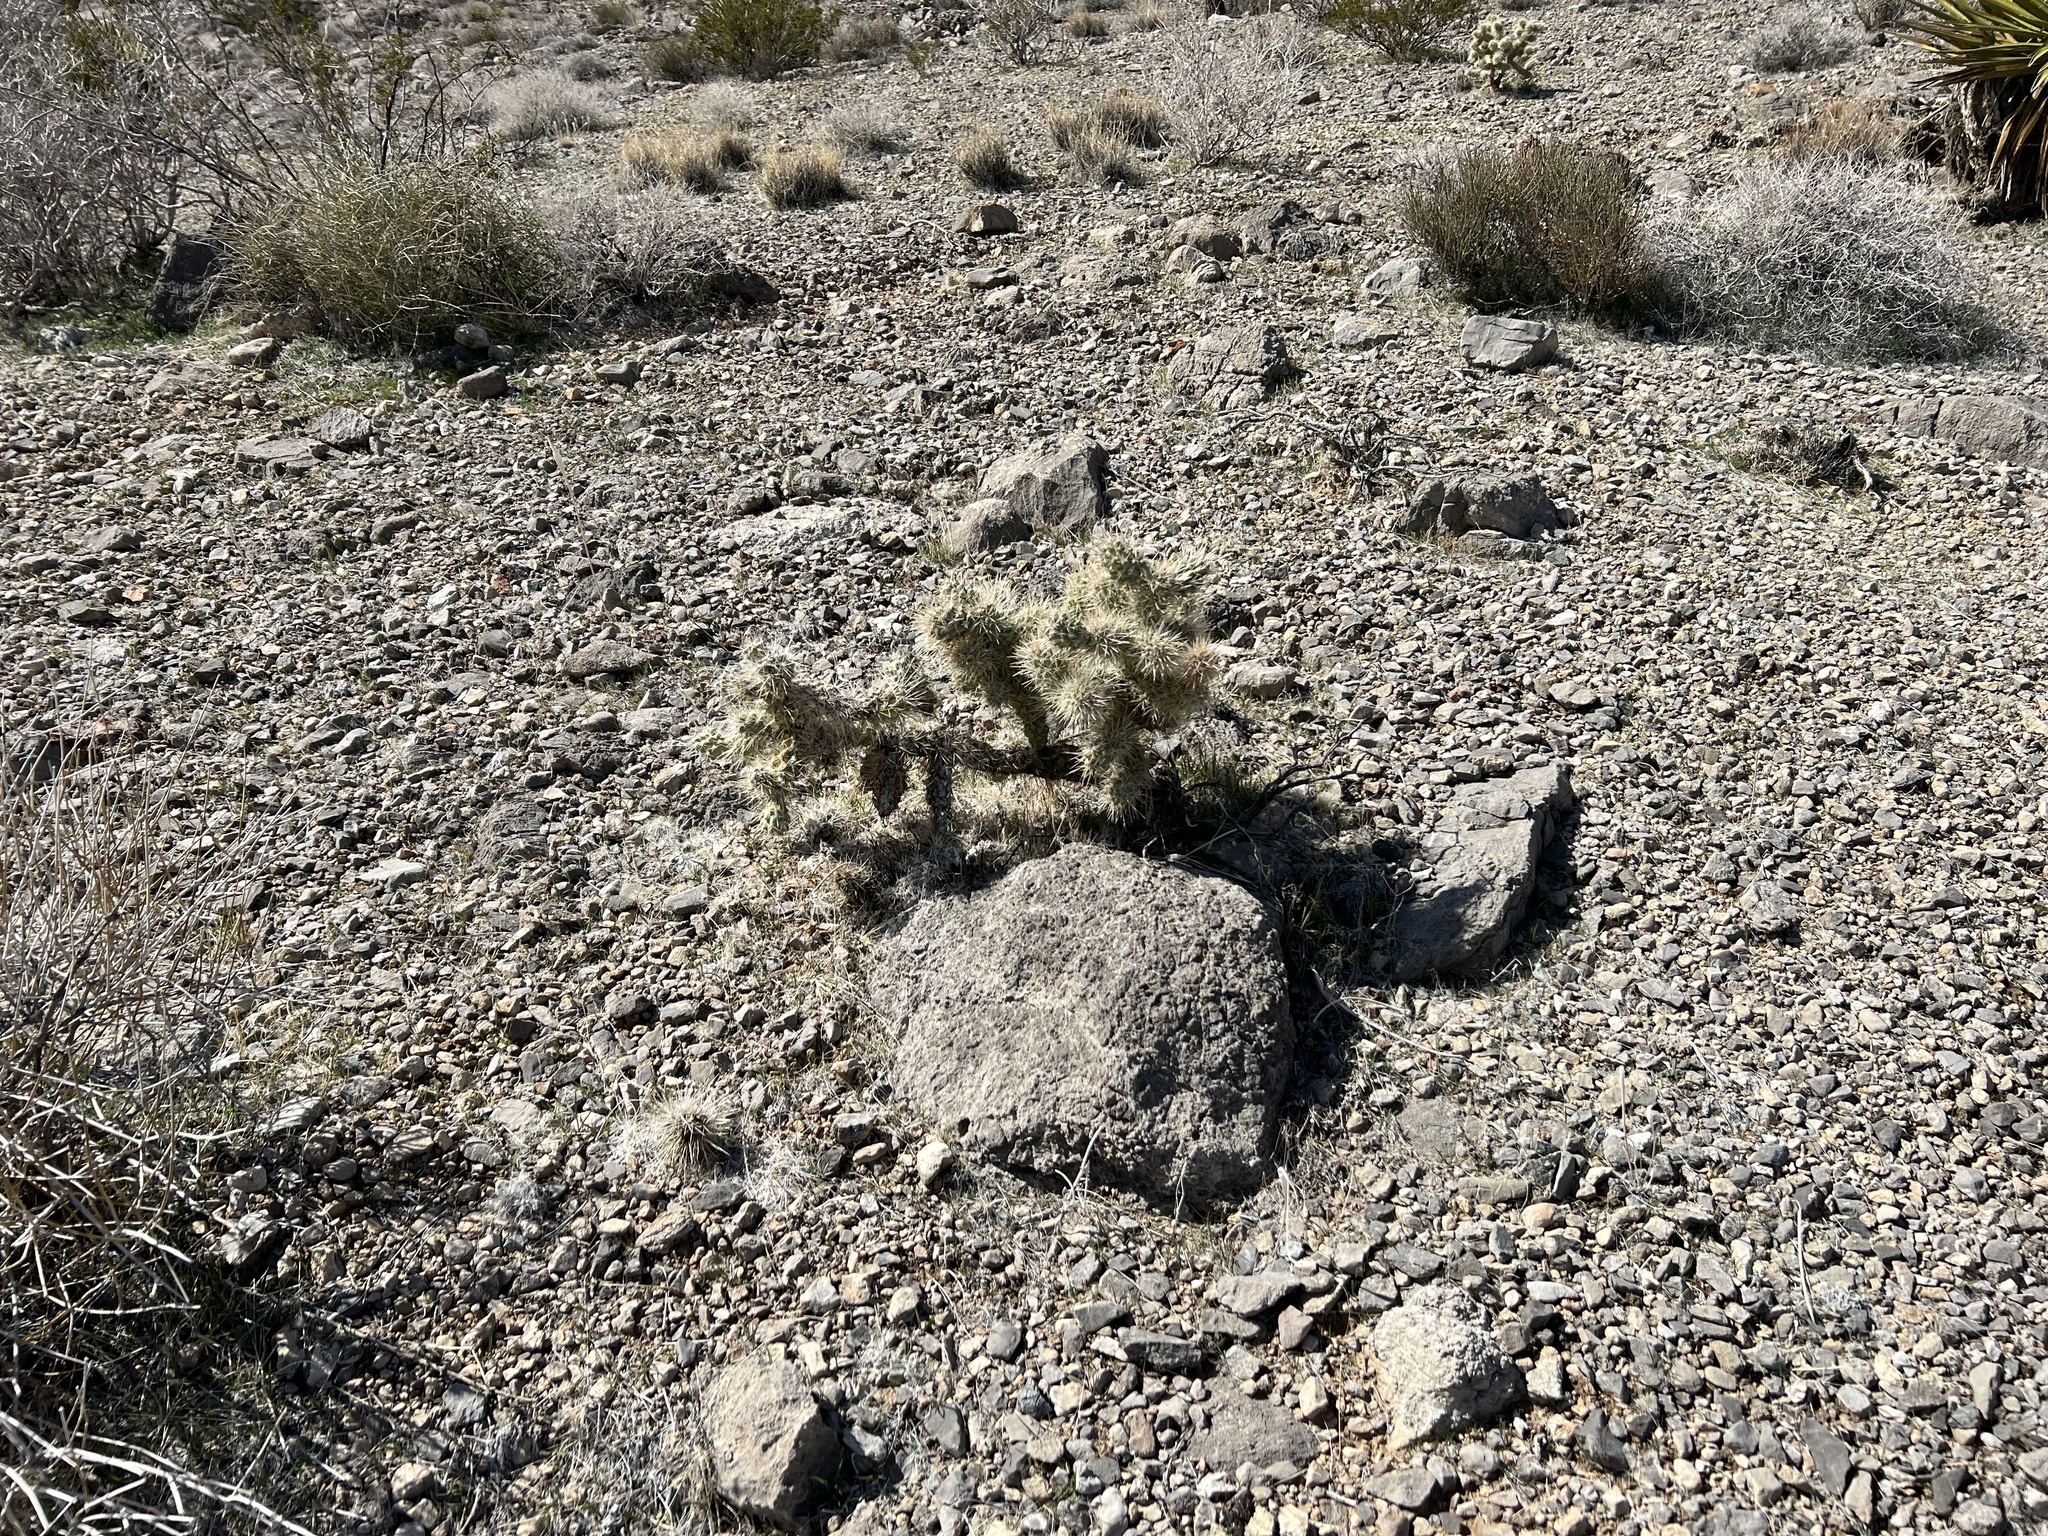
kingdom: Plantae
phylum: Tracheophyta
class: Magnoliopsida
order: Caryophyllales
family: Cactaceae
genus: Cylindropuntia
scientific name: Cylindropuntia echinocarpa
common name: Ground cholla
